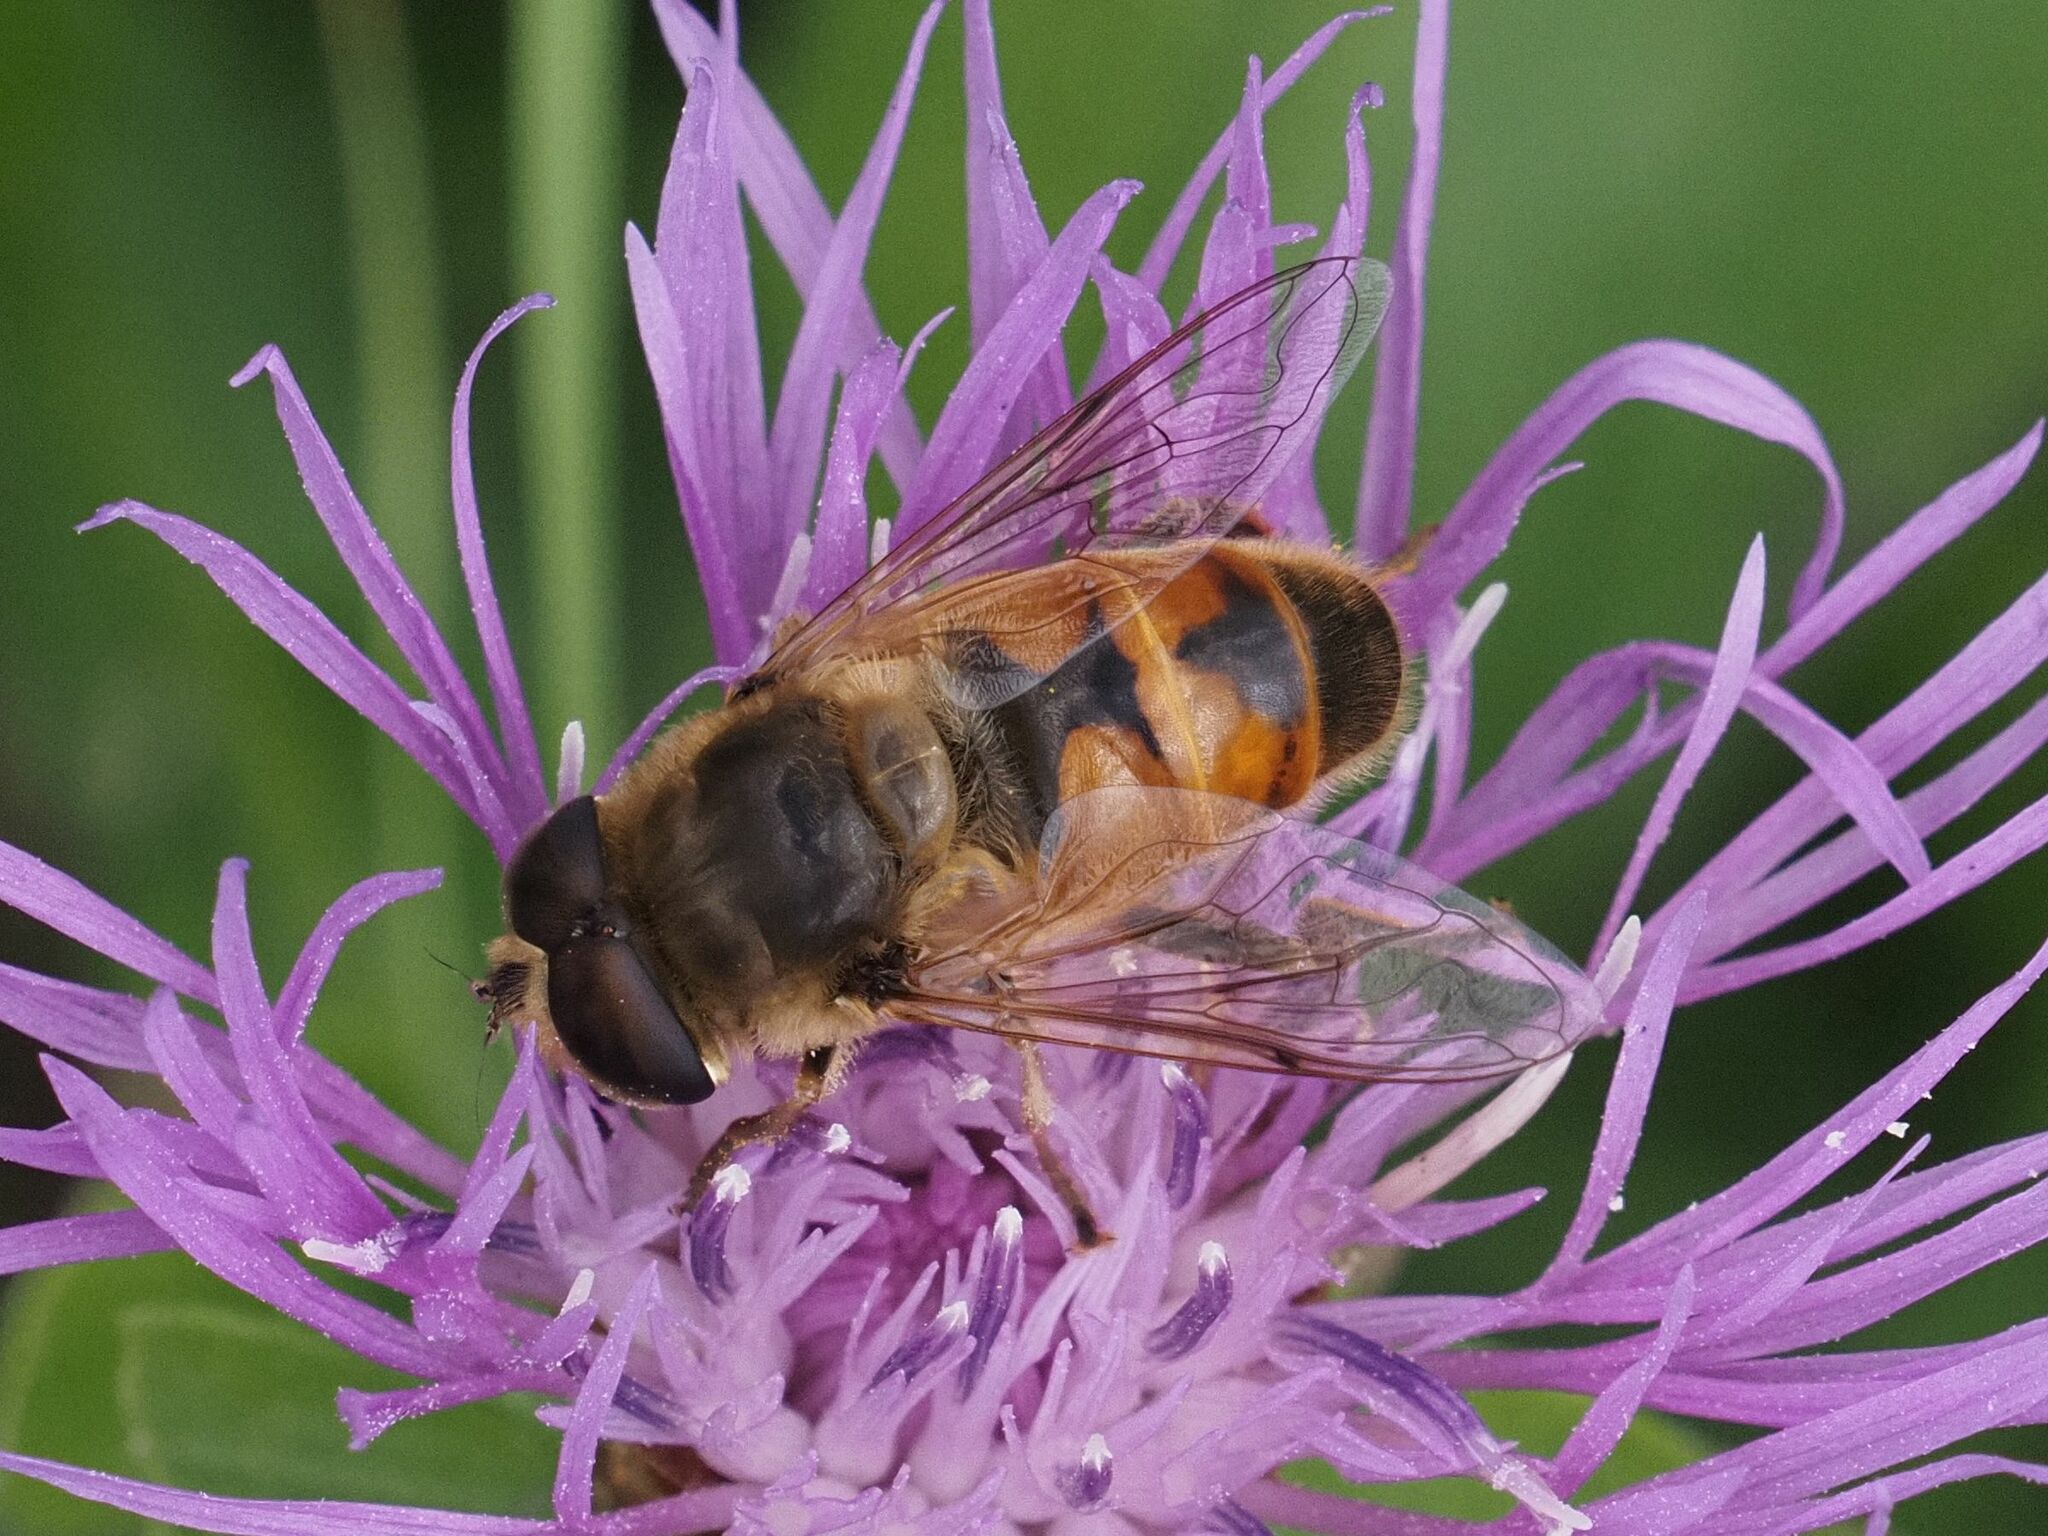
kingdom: Animalia
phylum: Arthropoda
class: Insecta
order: Diptera
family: Syrphidae
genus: Eristalis
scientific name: Eristalis tenax
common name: Drone fly
